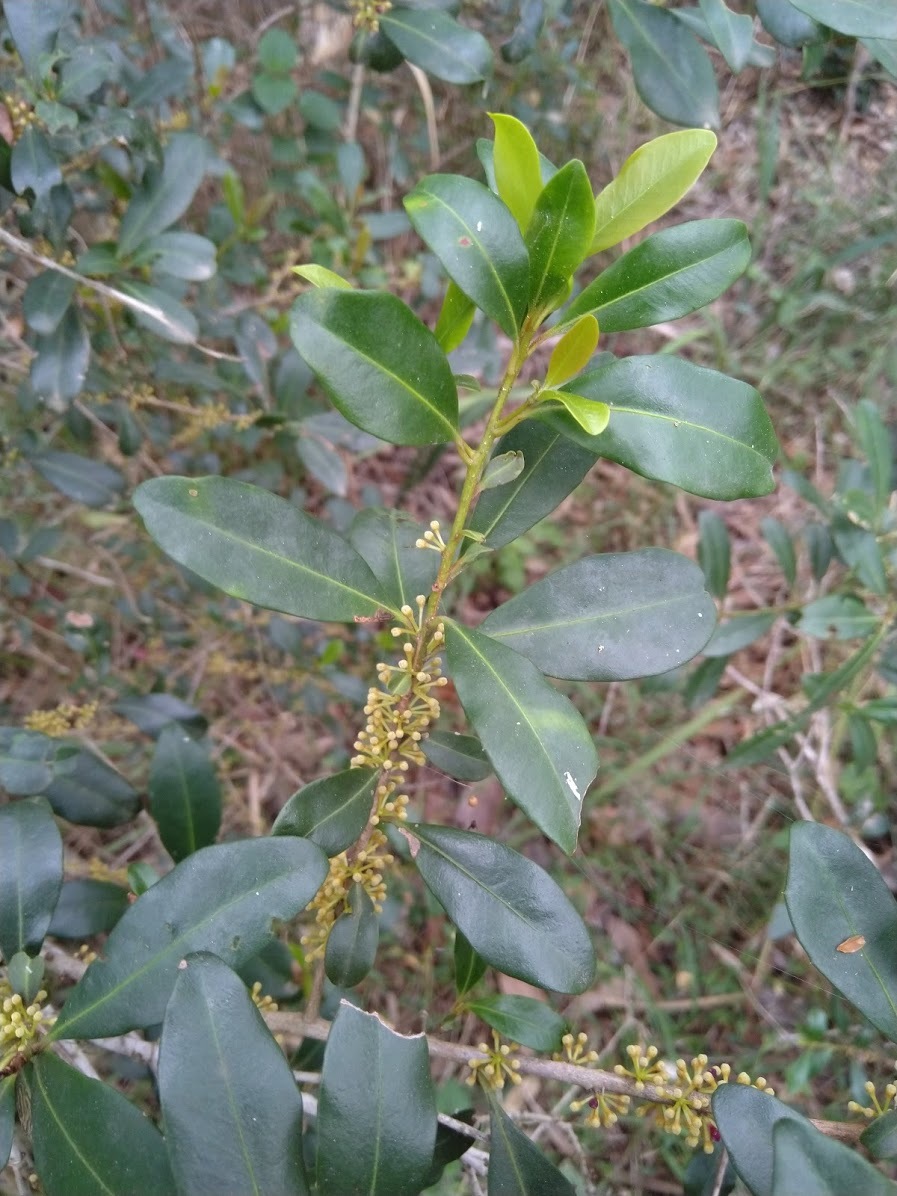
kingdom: Plantae
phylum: Tracheophyta
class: Magnoliopsida
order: Ericales
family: Primulaceae
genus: Myrsine
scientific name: Myrsine variabilis
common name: Brush muttonwood
